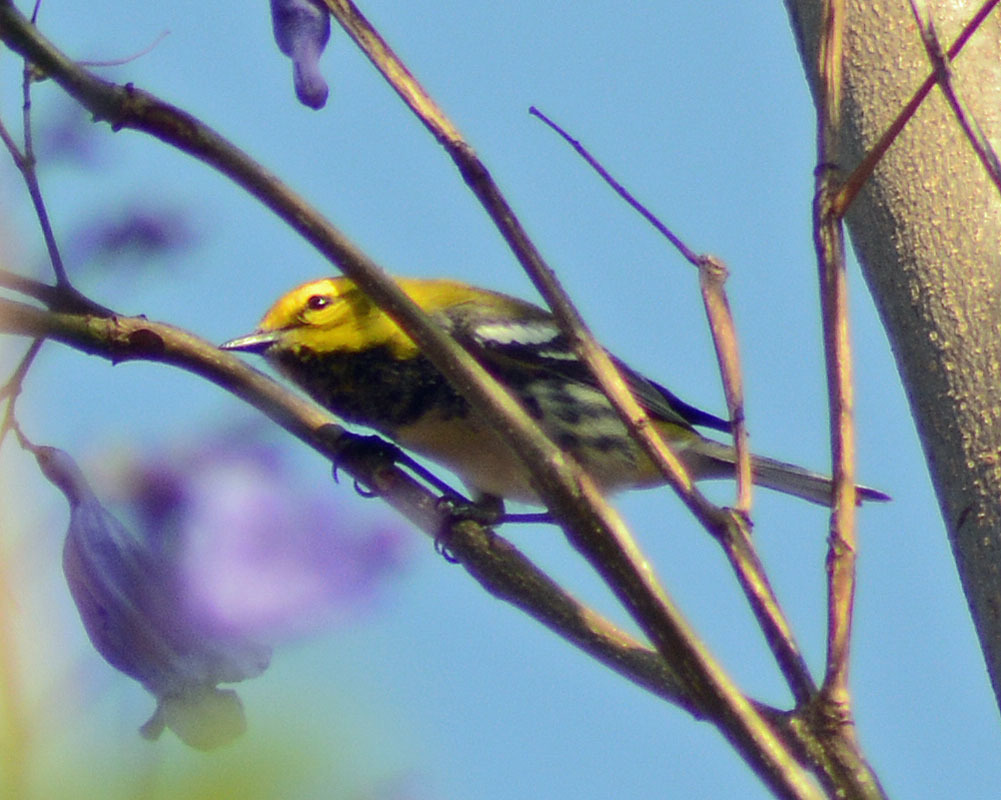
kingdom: Animalia
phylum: Chordata
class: Aves
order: Passeriformes
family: Parulidae
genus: Setophaga
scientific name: Setophaga virens
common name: Black-throated green warbler
